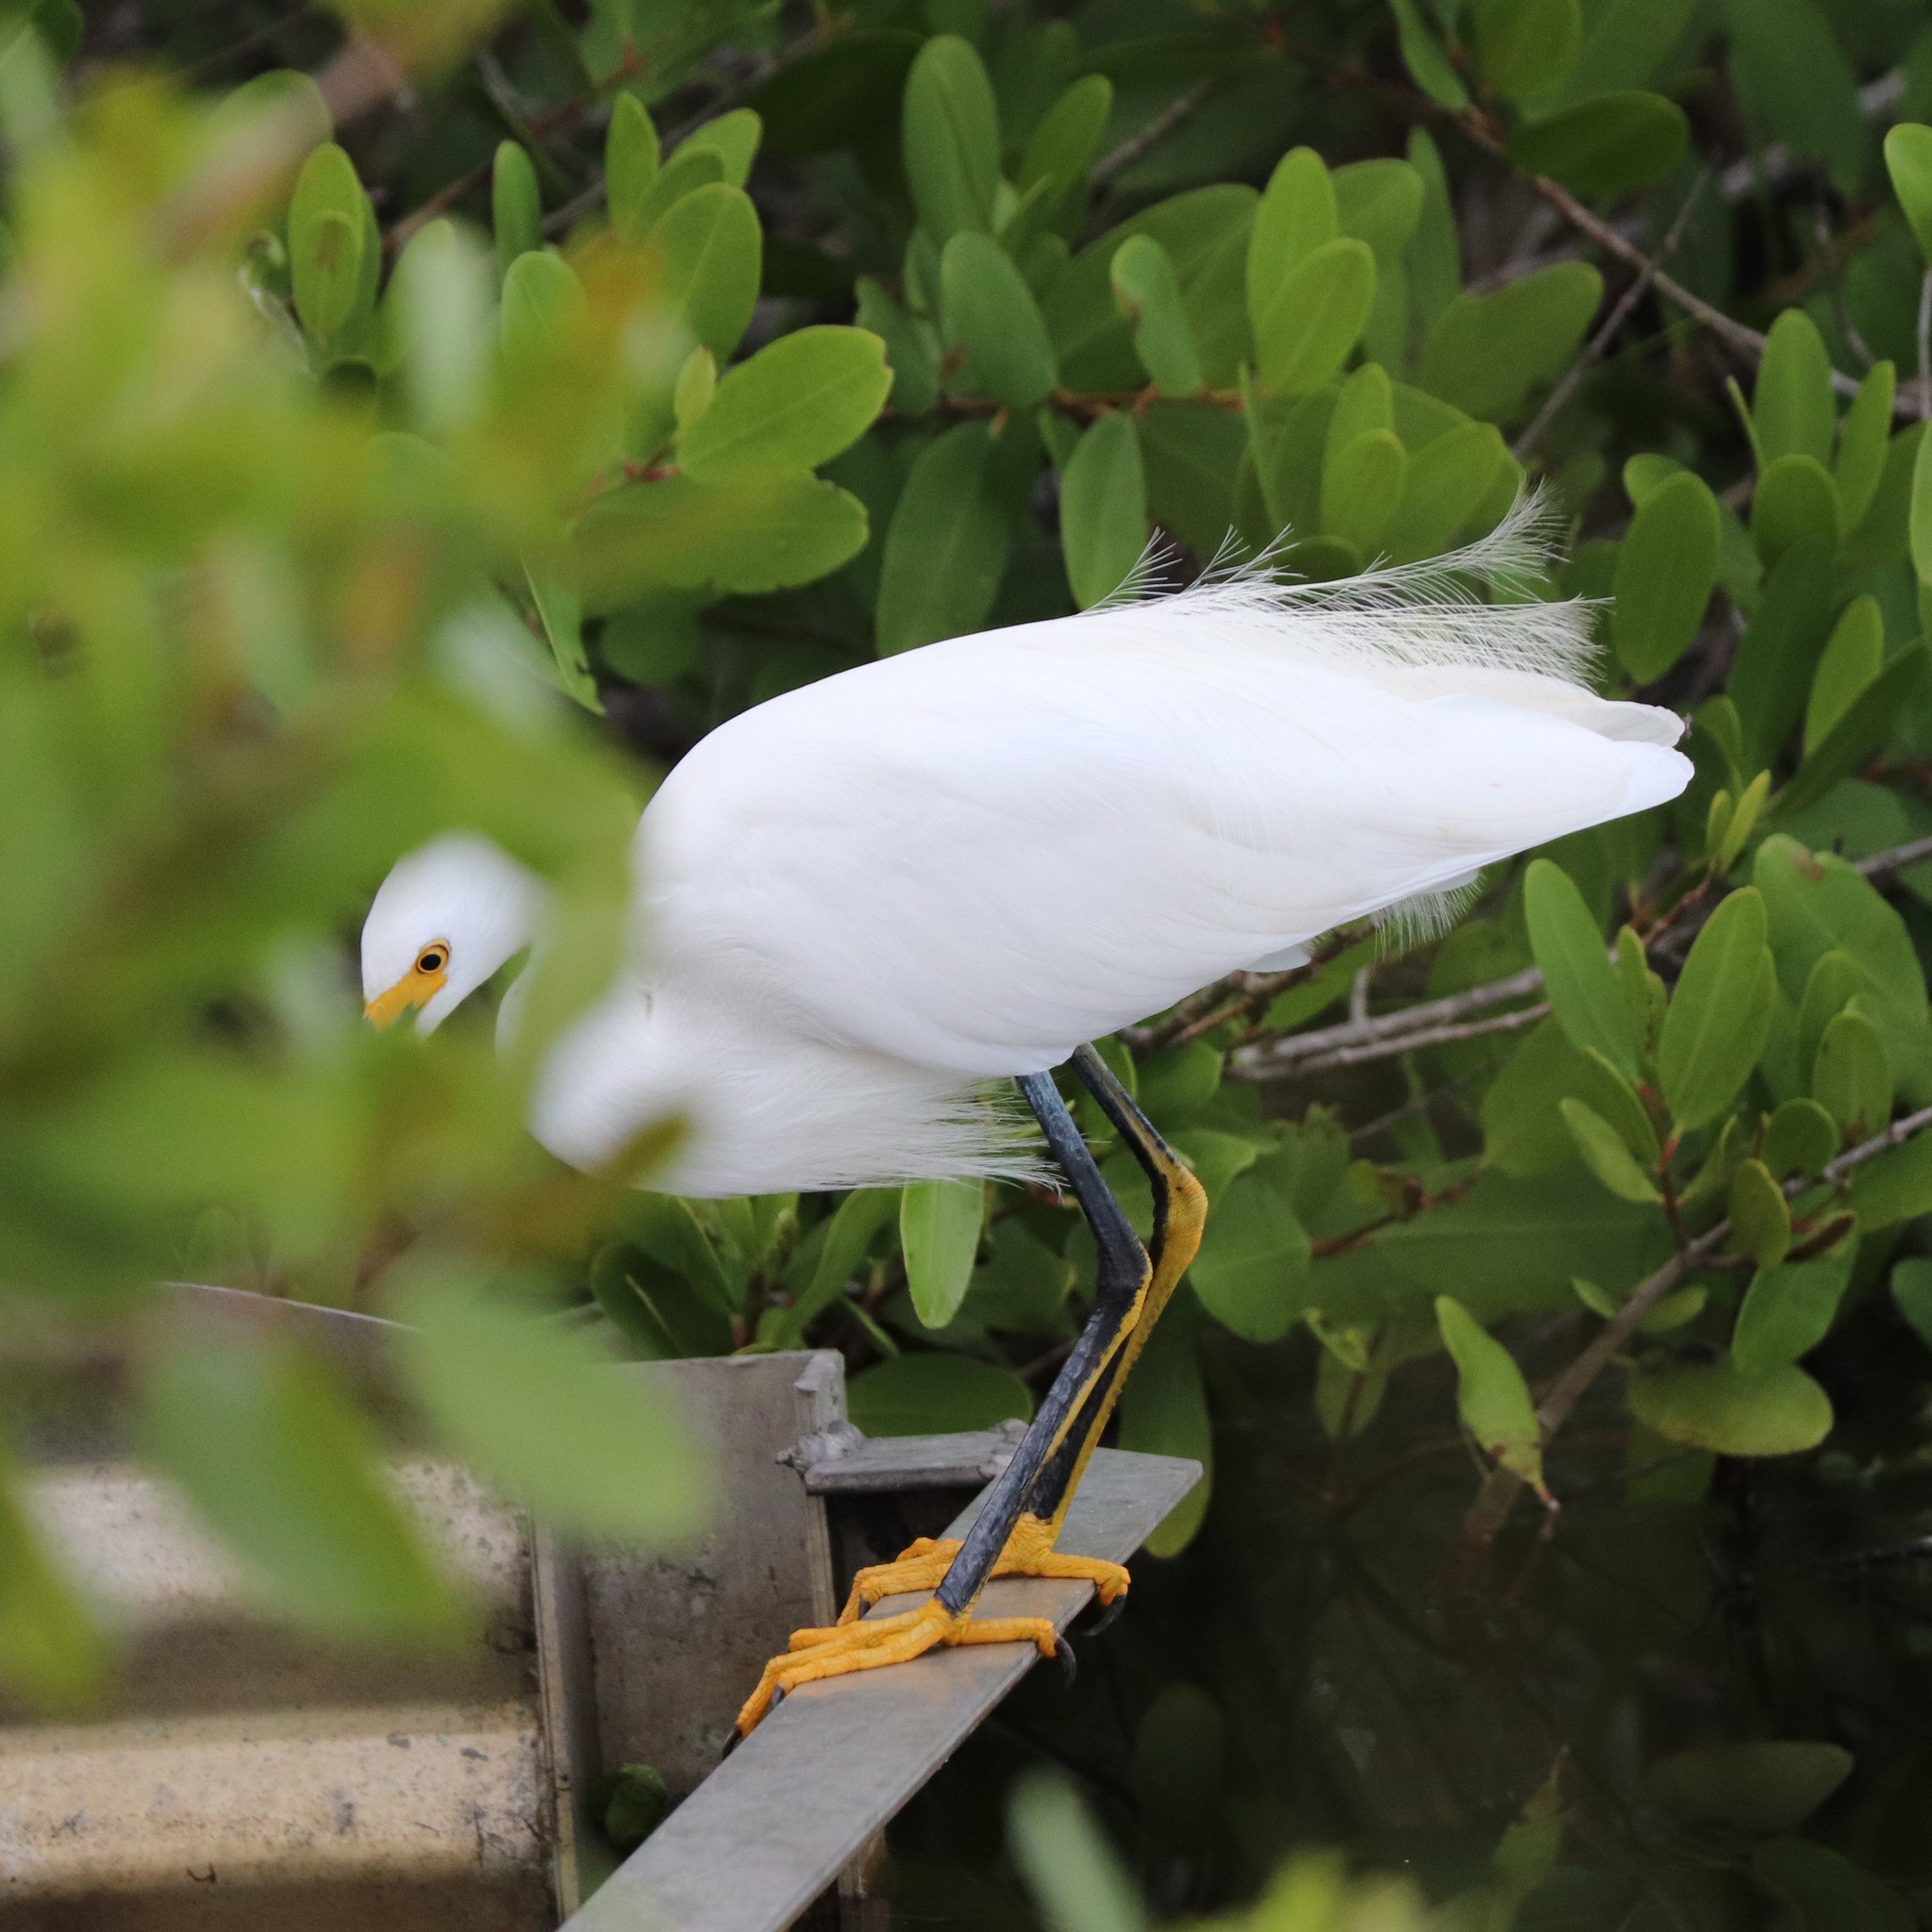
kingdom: Animalia
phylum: Chordata
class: Aves
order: Pelecaniformes
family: Ardeidae
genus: Egretta
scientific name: Egretta thula
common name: Snowy egret
